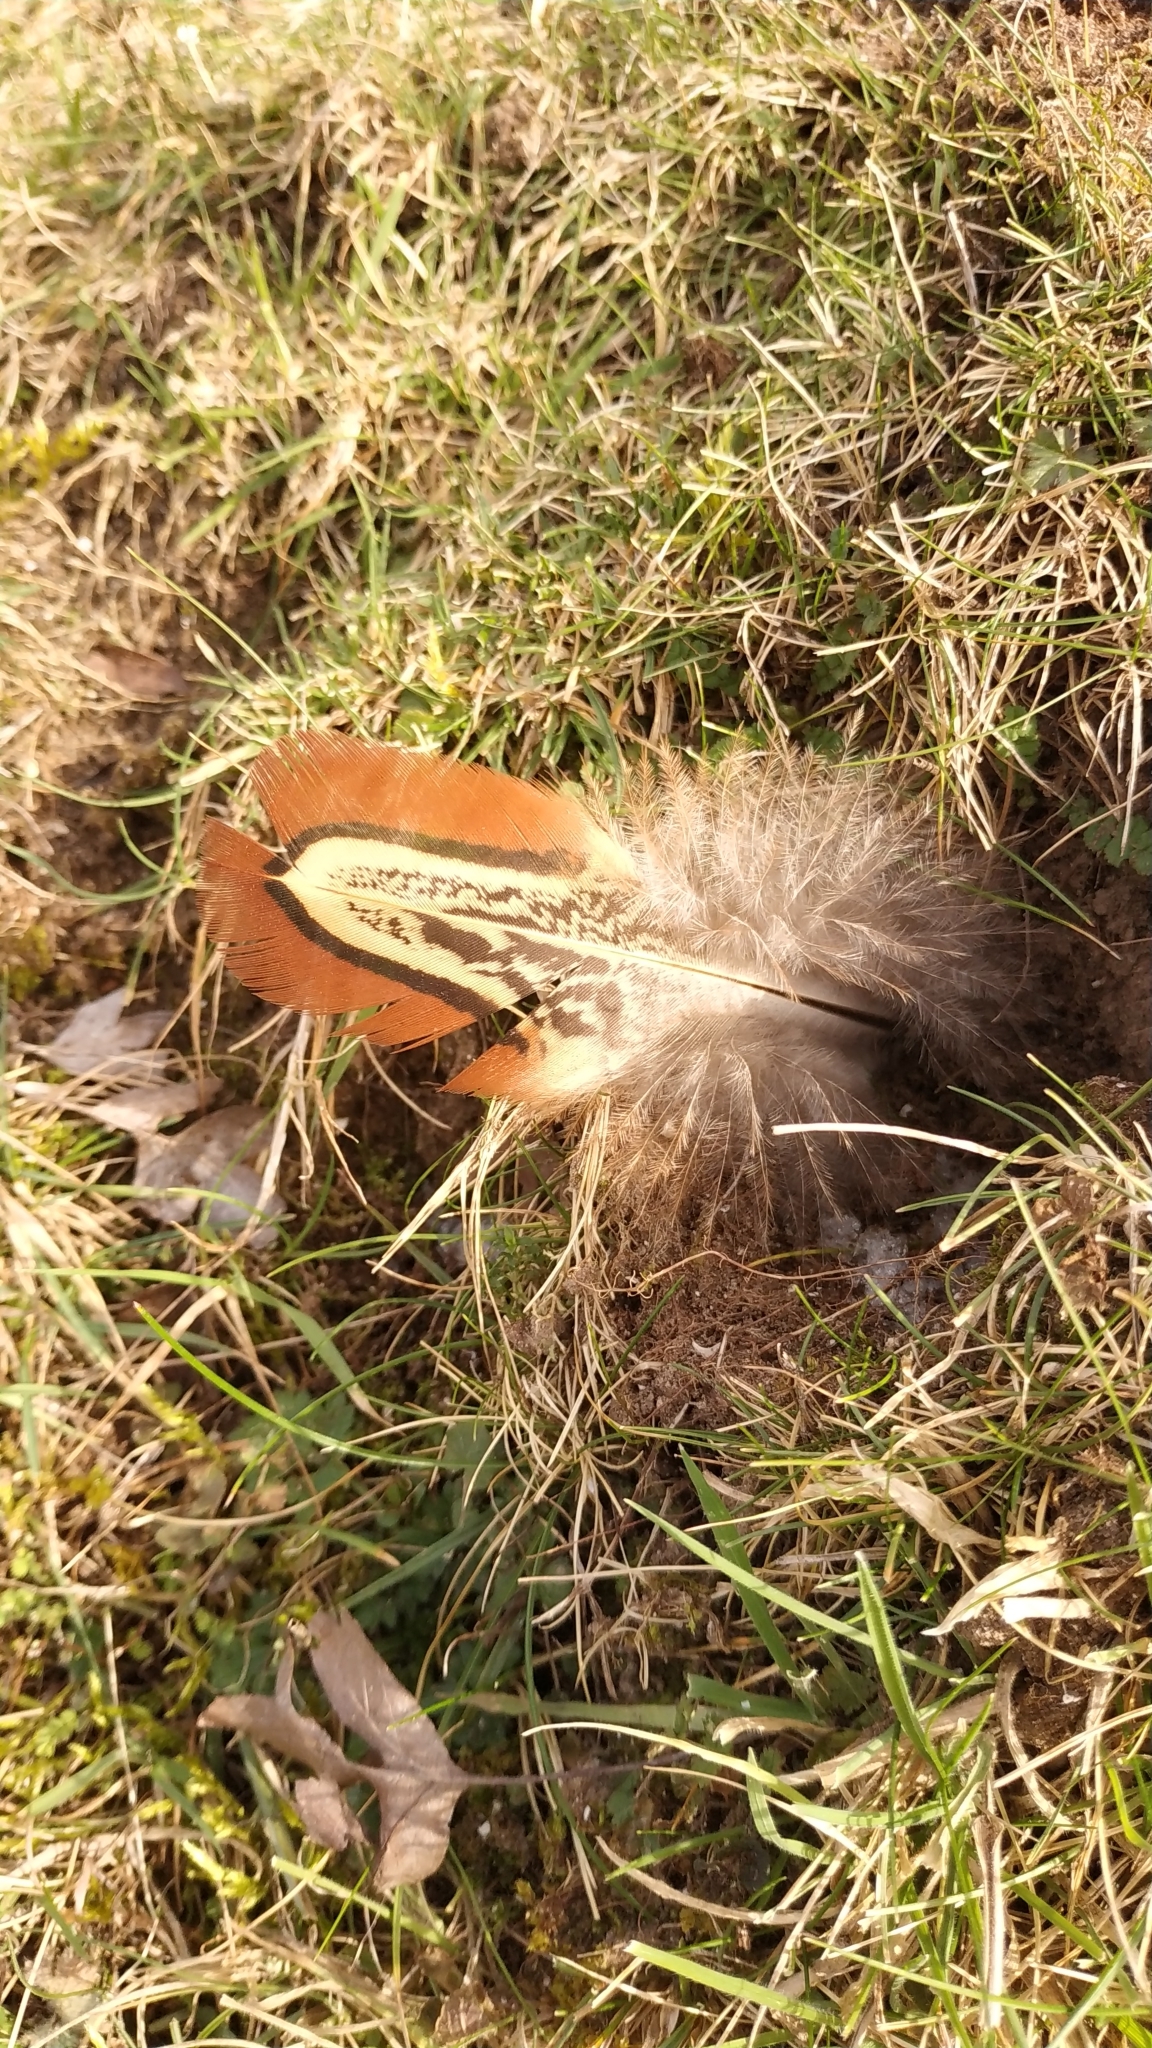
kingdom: Animalia
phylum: Chordata
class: Aves
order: Galliformes
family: Phasianidae
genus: Phasianus
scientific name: Phasianus colchicus
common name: Common pheasant
